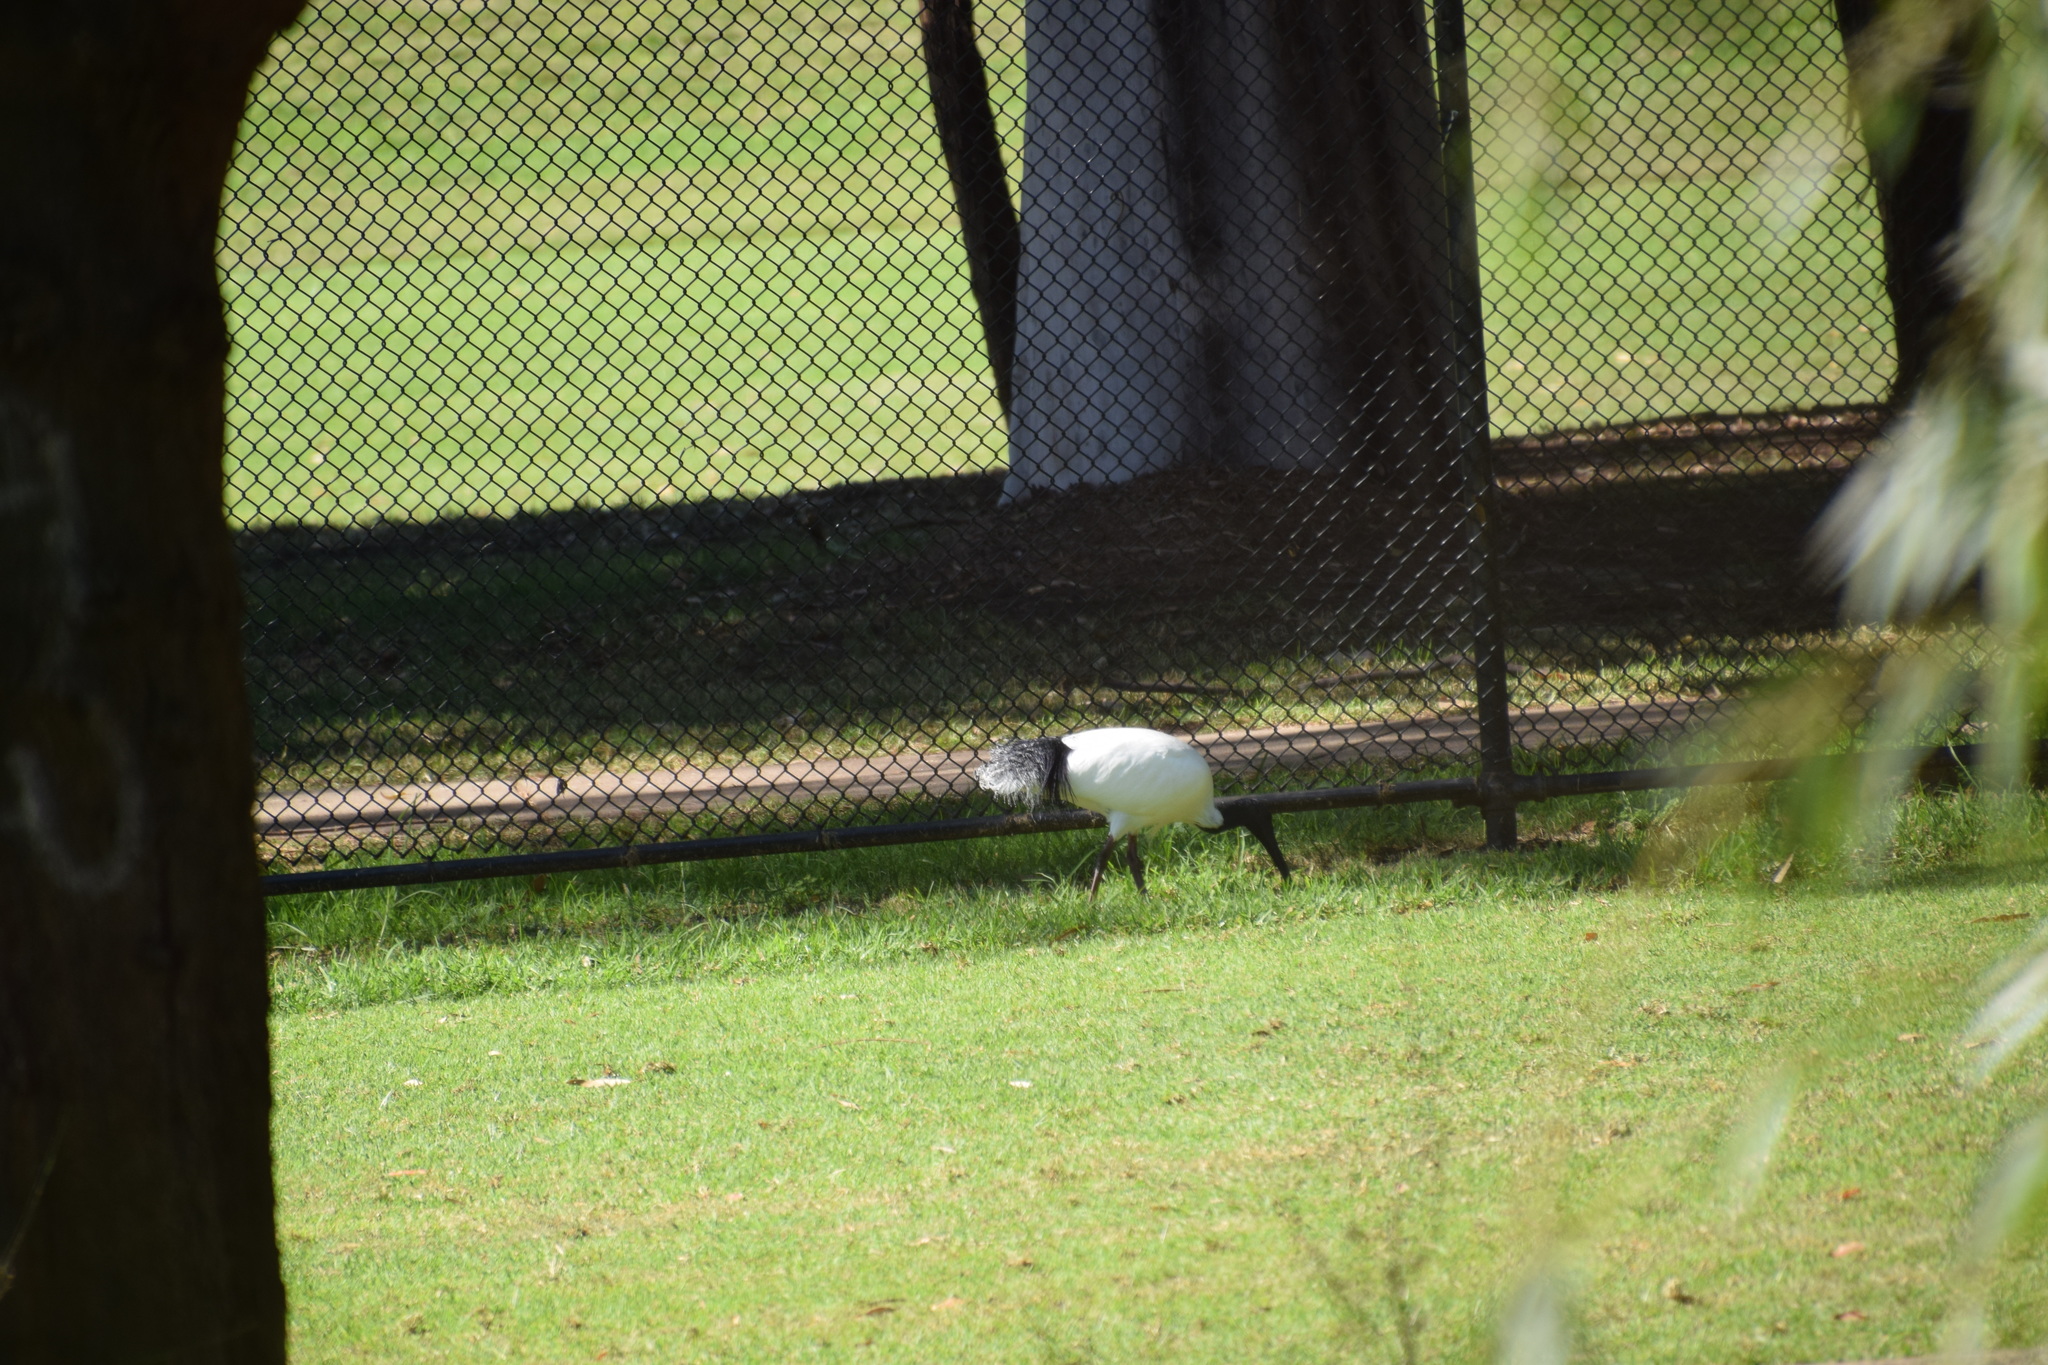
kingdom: Animalia
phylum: Chordata
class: Aves
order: Pelecaniformes
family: Threskiornithidae
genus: Threskiornis
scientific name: Threskiornis molucca
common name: Australian white ibis
